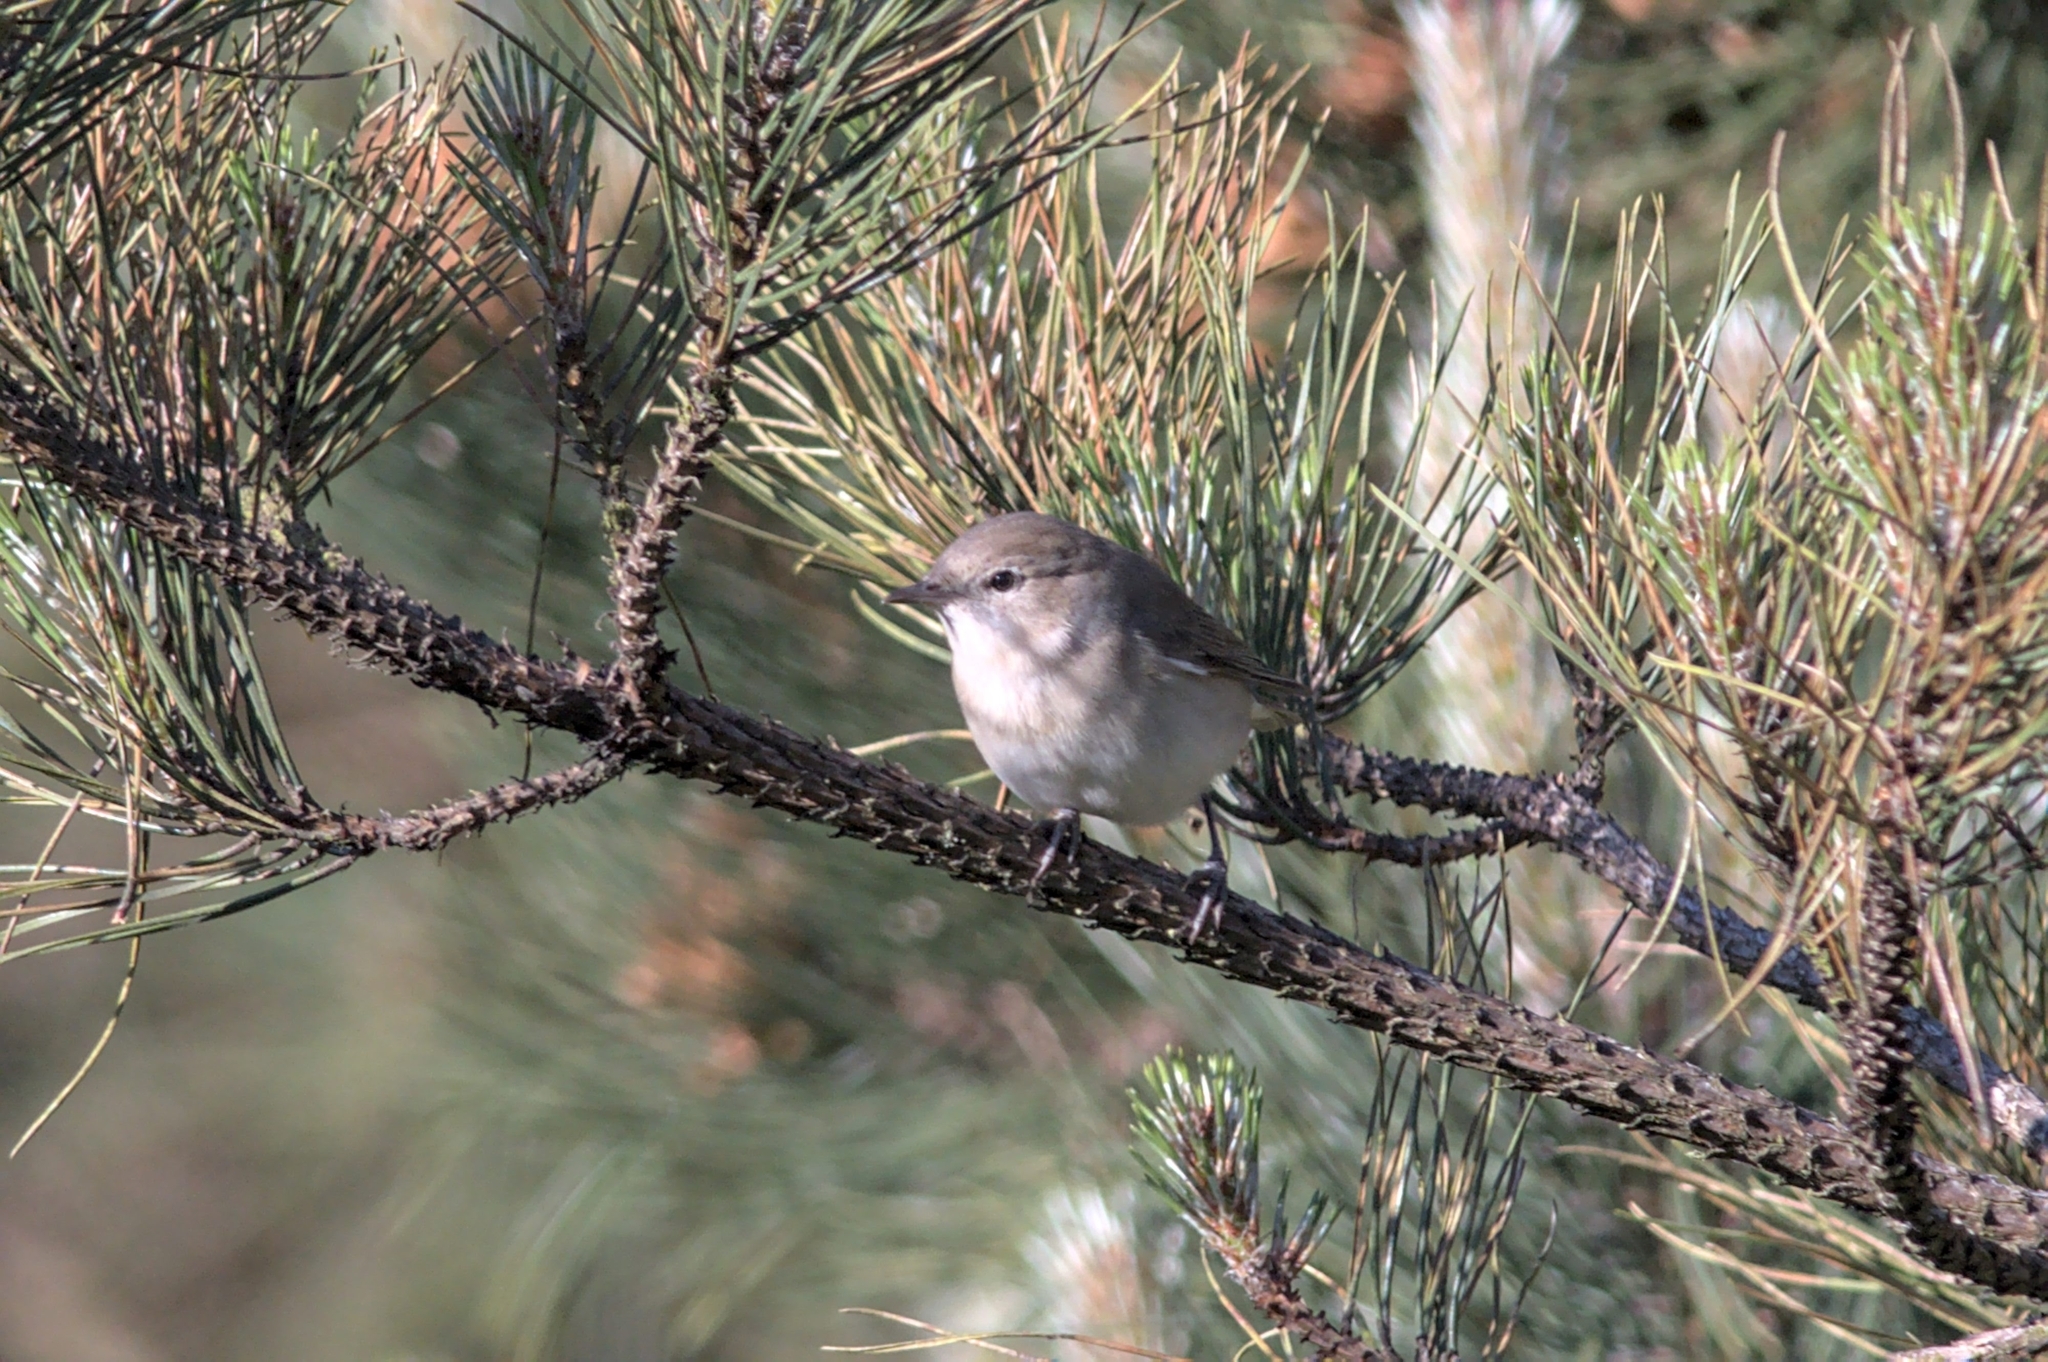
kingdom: Animalia
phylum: Chordata
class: Aves
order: Passeriformes
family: Sylviidae
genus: Sylvia
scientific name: Sylvia borin
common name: Garden warbler
